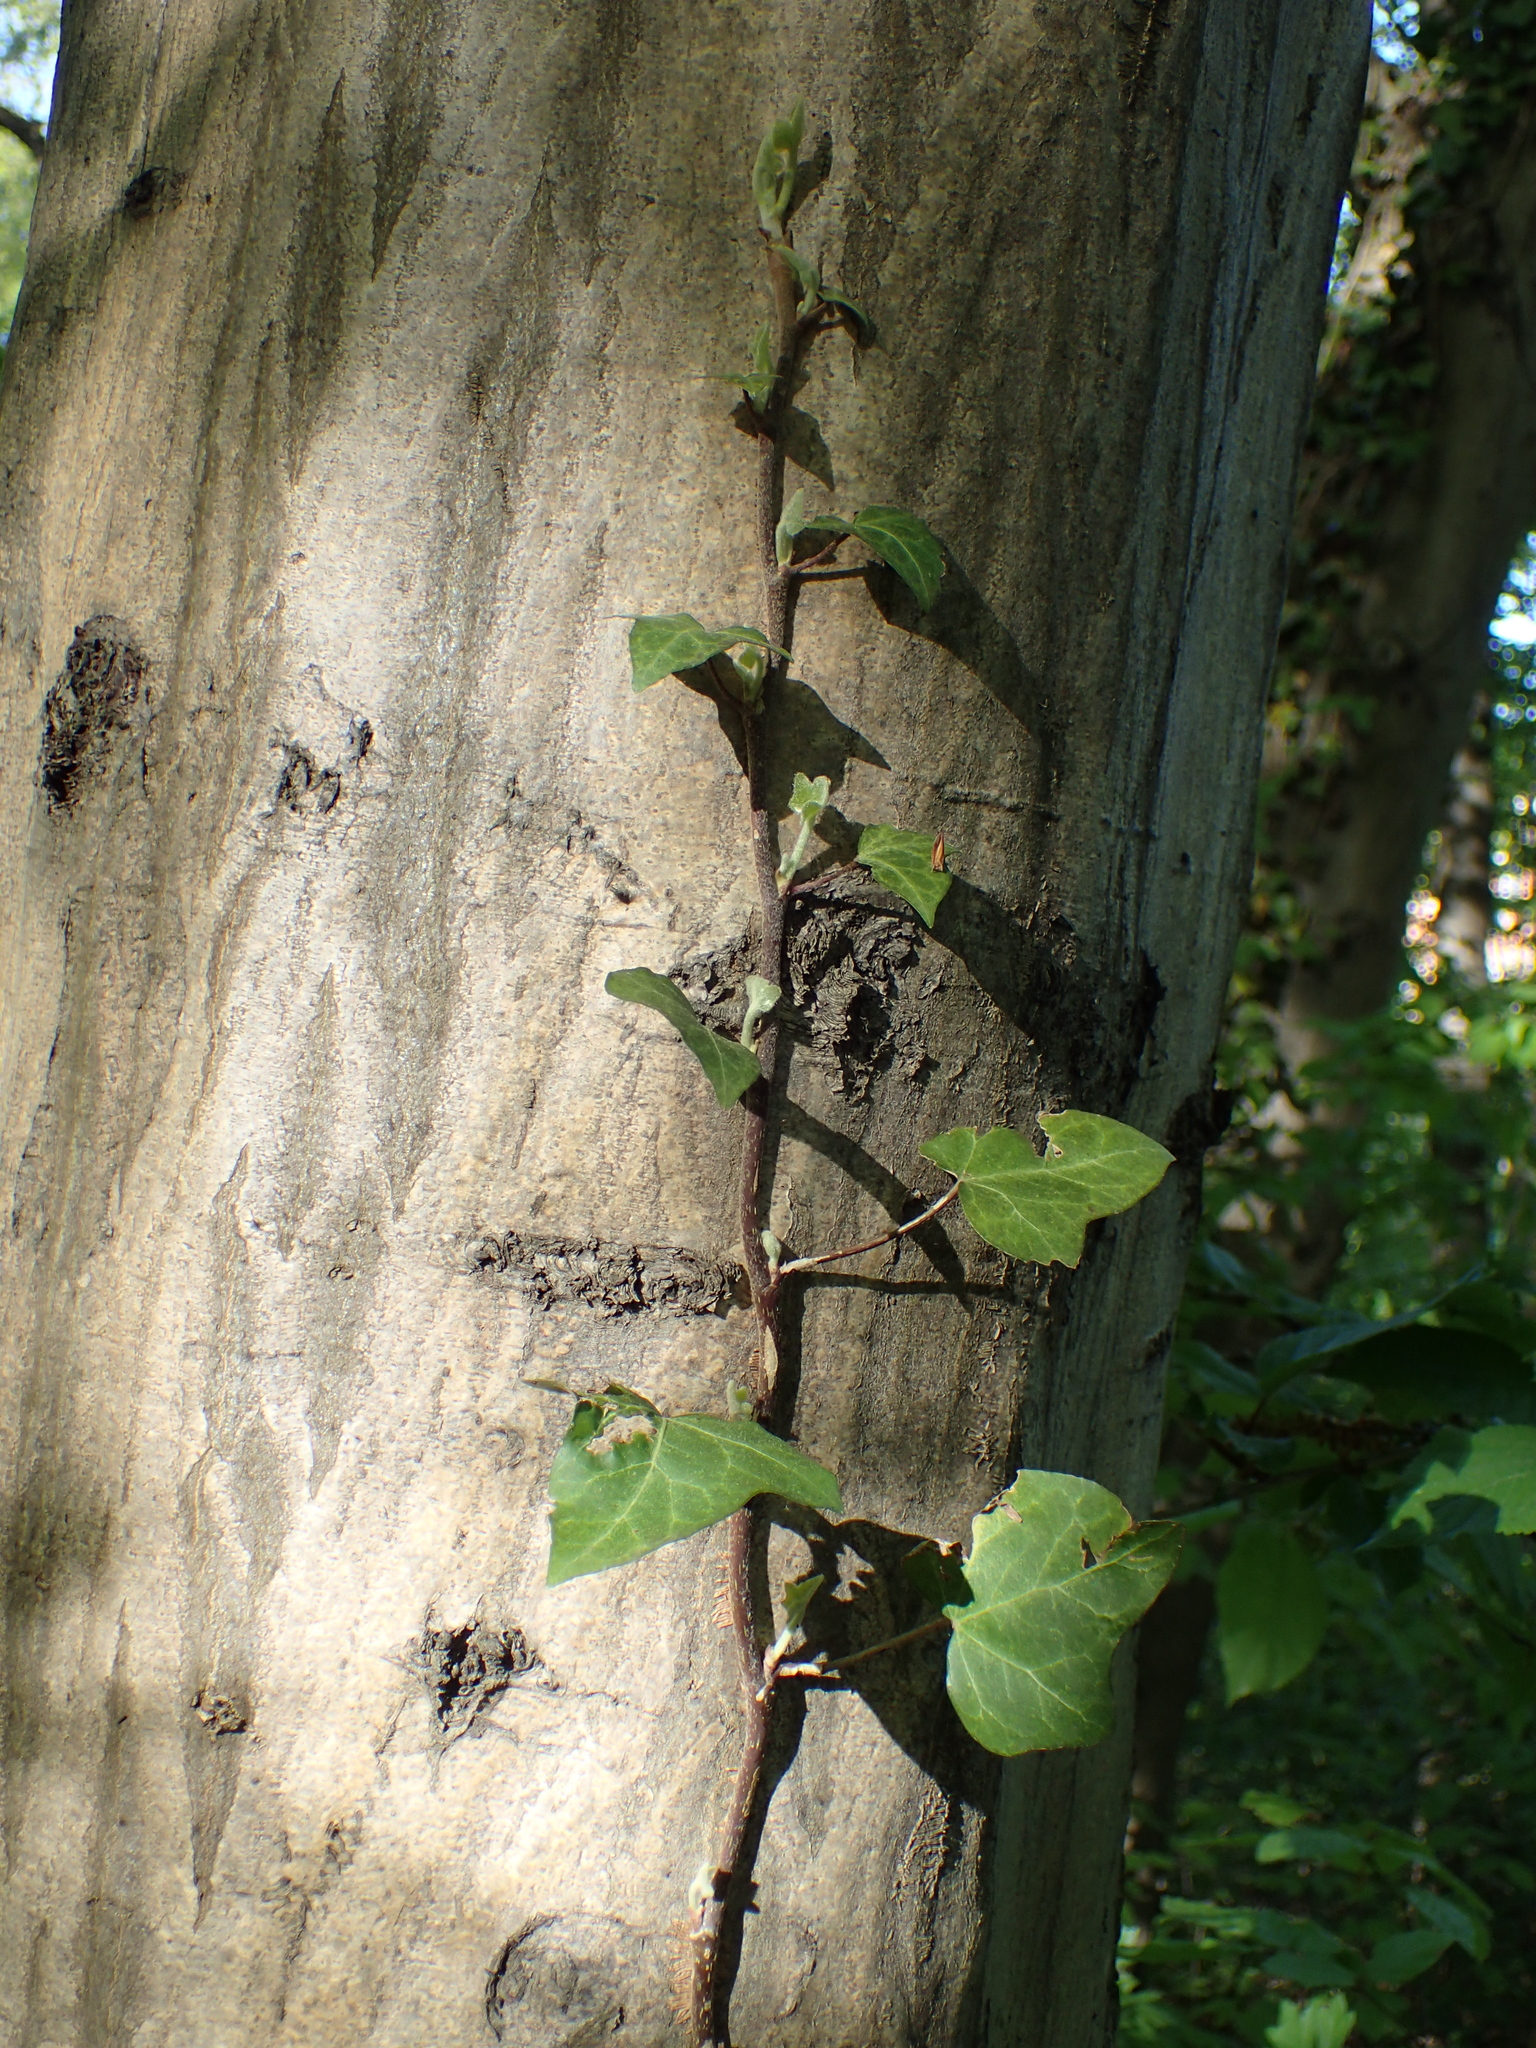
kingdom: Plantae
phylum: Tracheophyta
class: Magnoliopsida
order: Apiales
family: Araliaceae
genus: Hedera
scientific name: Hedera helix
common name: Ivy
